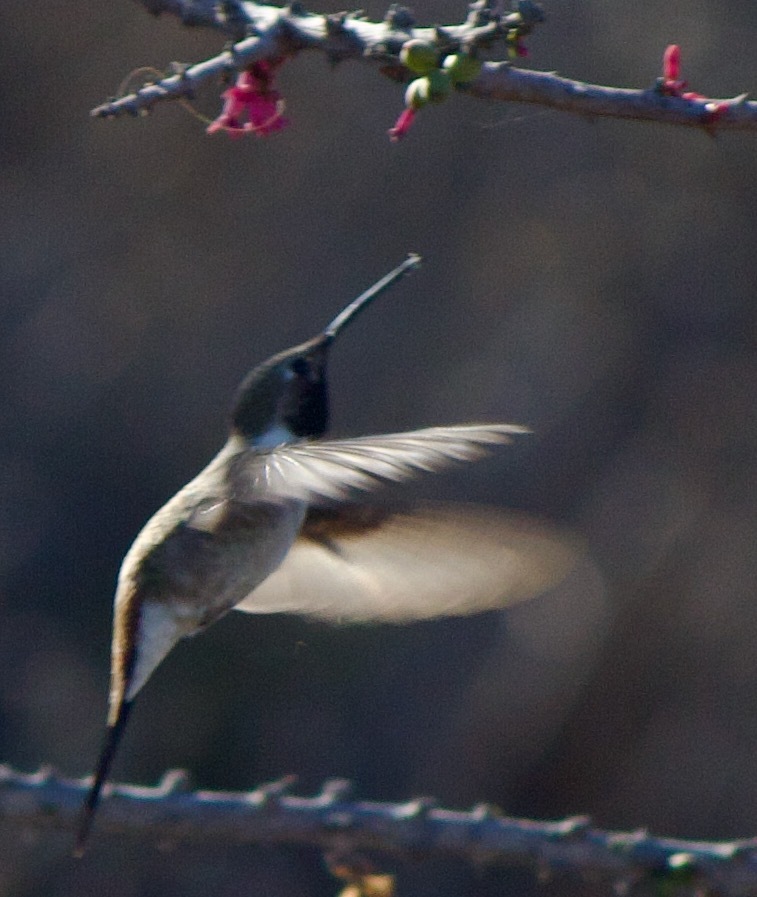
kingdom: Animalia
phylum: Chordata
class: Aves
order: Apodiformes
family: Trochilidae
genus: Rhodopis
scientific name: Rhodopis vesper
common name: Oasis hummingbird
